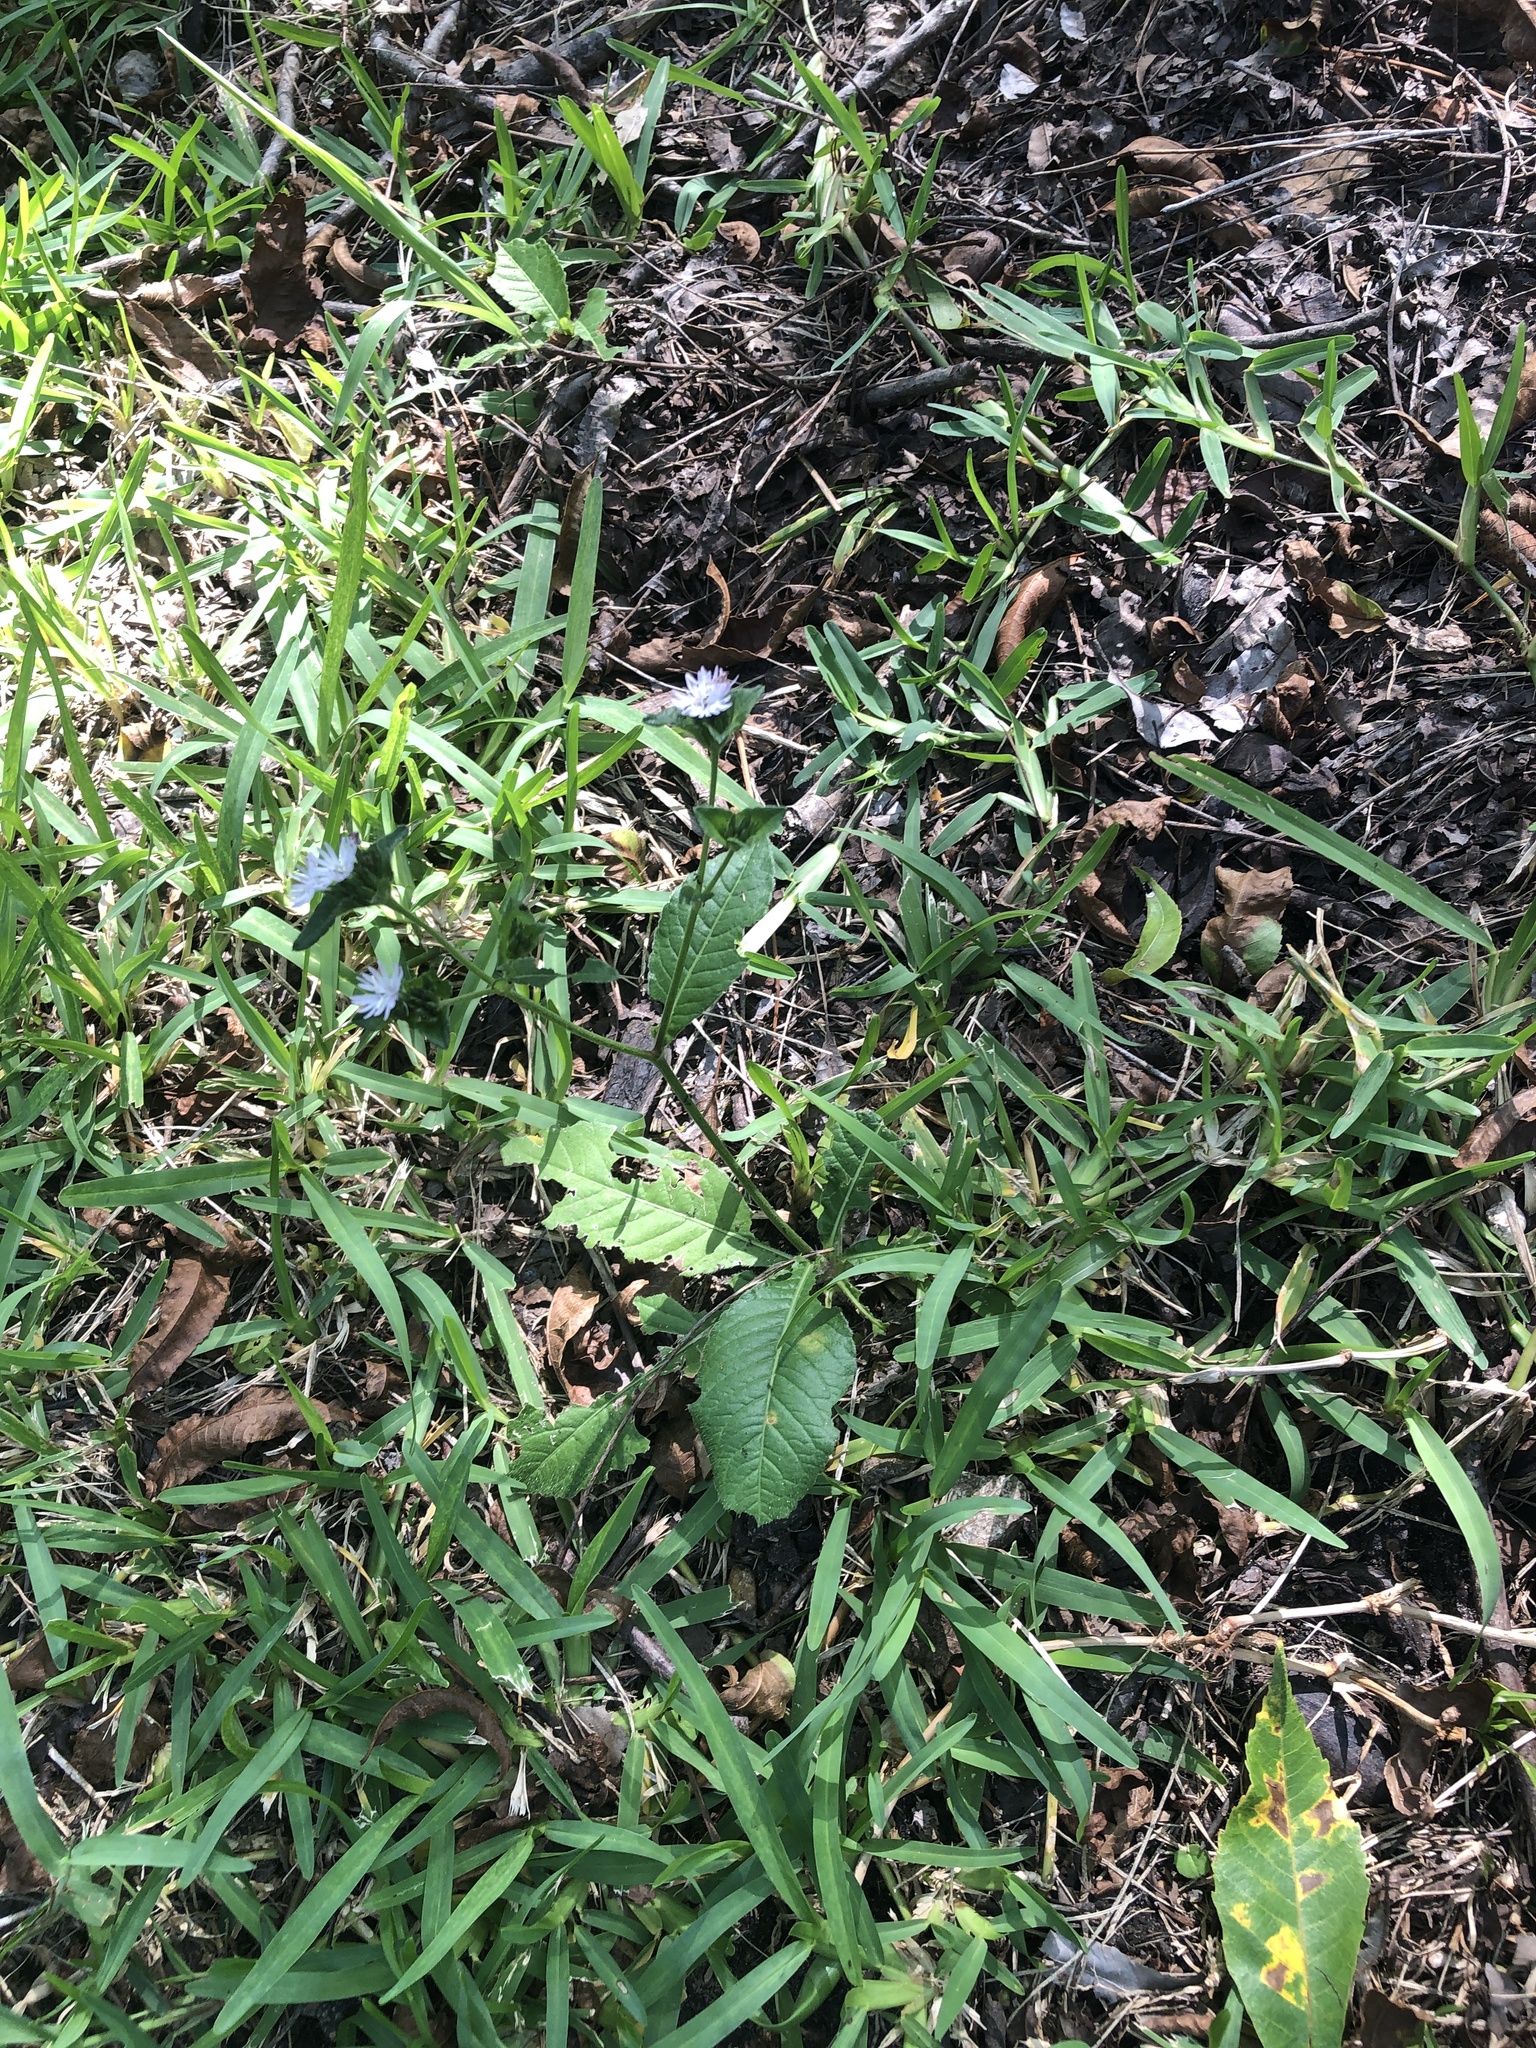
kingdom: Plantae
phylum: Tracheophyta
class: Magnoliopsida
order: Asterales
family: Asteraceae
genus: Elephantopus
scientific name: Elephantopus carolinianus
